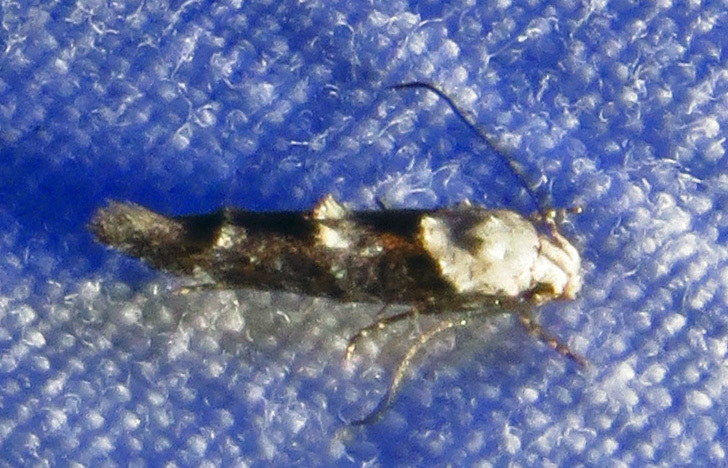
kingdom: Animalia
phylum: Arthropoda
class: Insecta
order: Lepidoptera
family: Momphidae
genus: Mompha
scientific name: Mompha albocapitella
